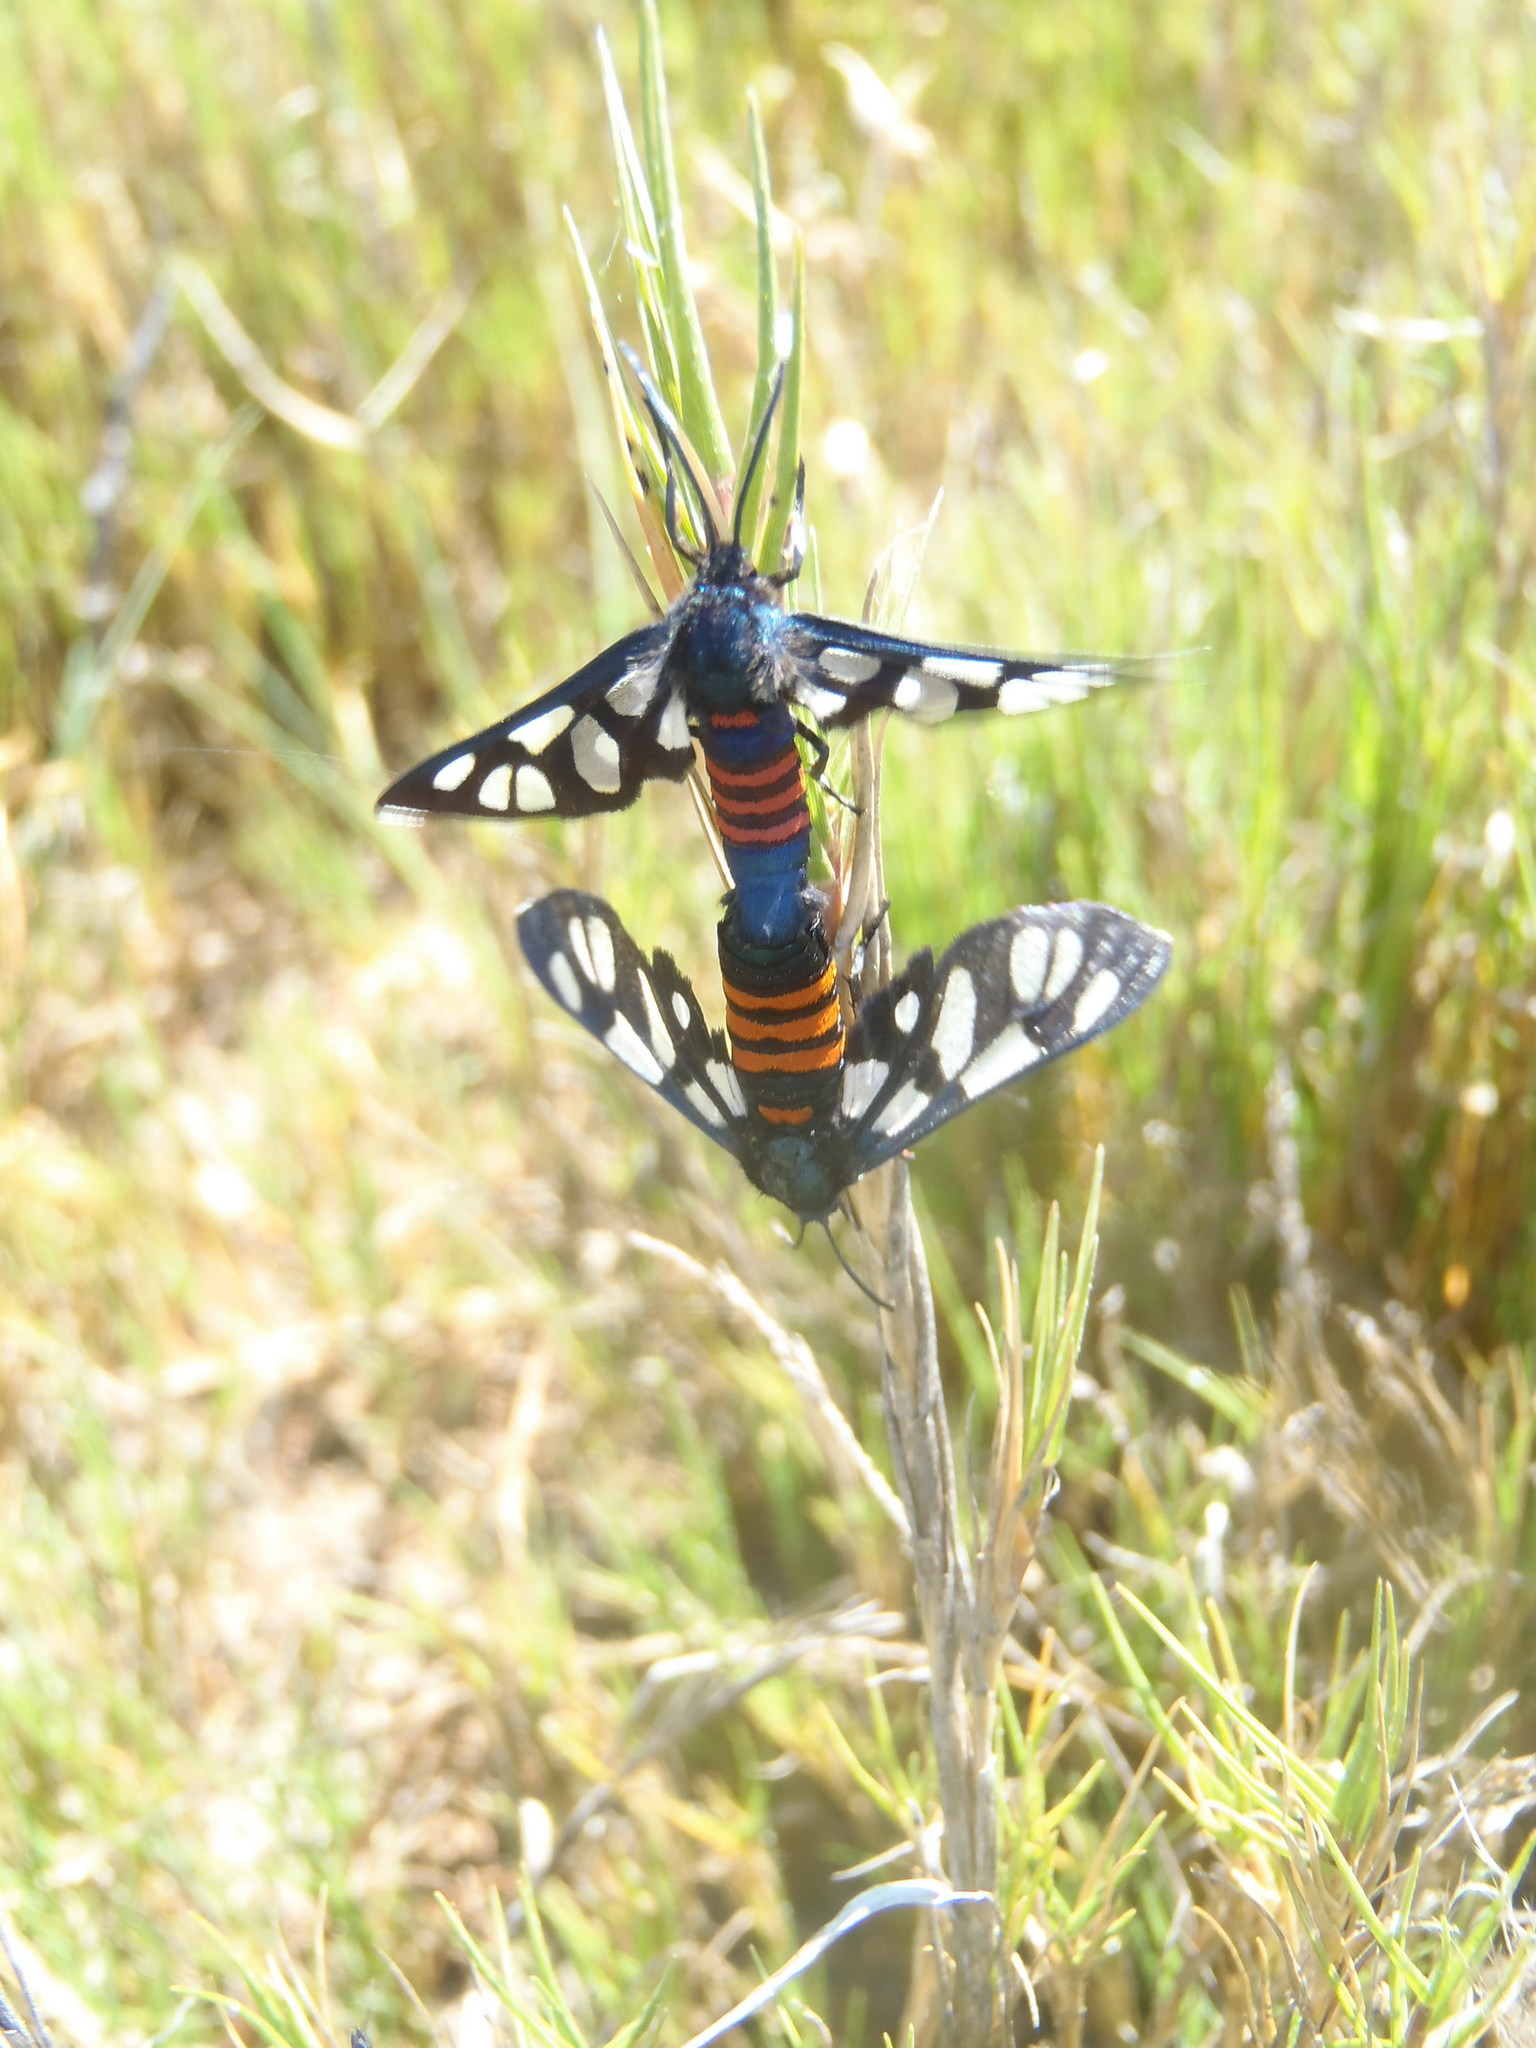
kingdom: Animalia
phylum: Arthropoda
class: Insecta
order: Lepidoptera
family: Erebidae
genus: Amata
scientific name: Amata cerbera
